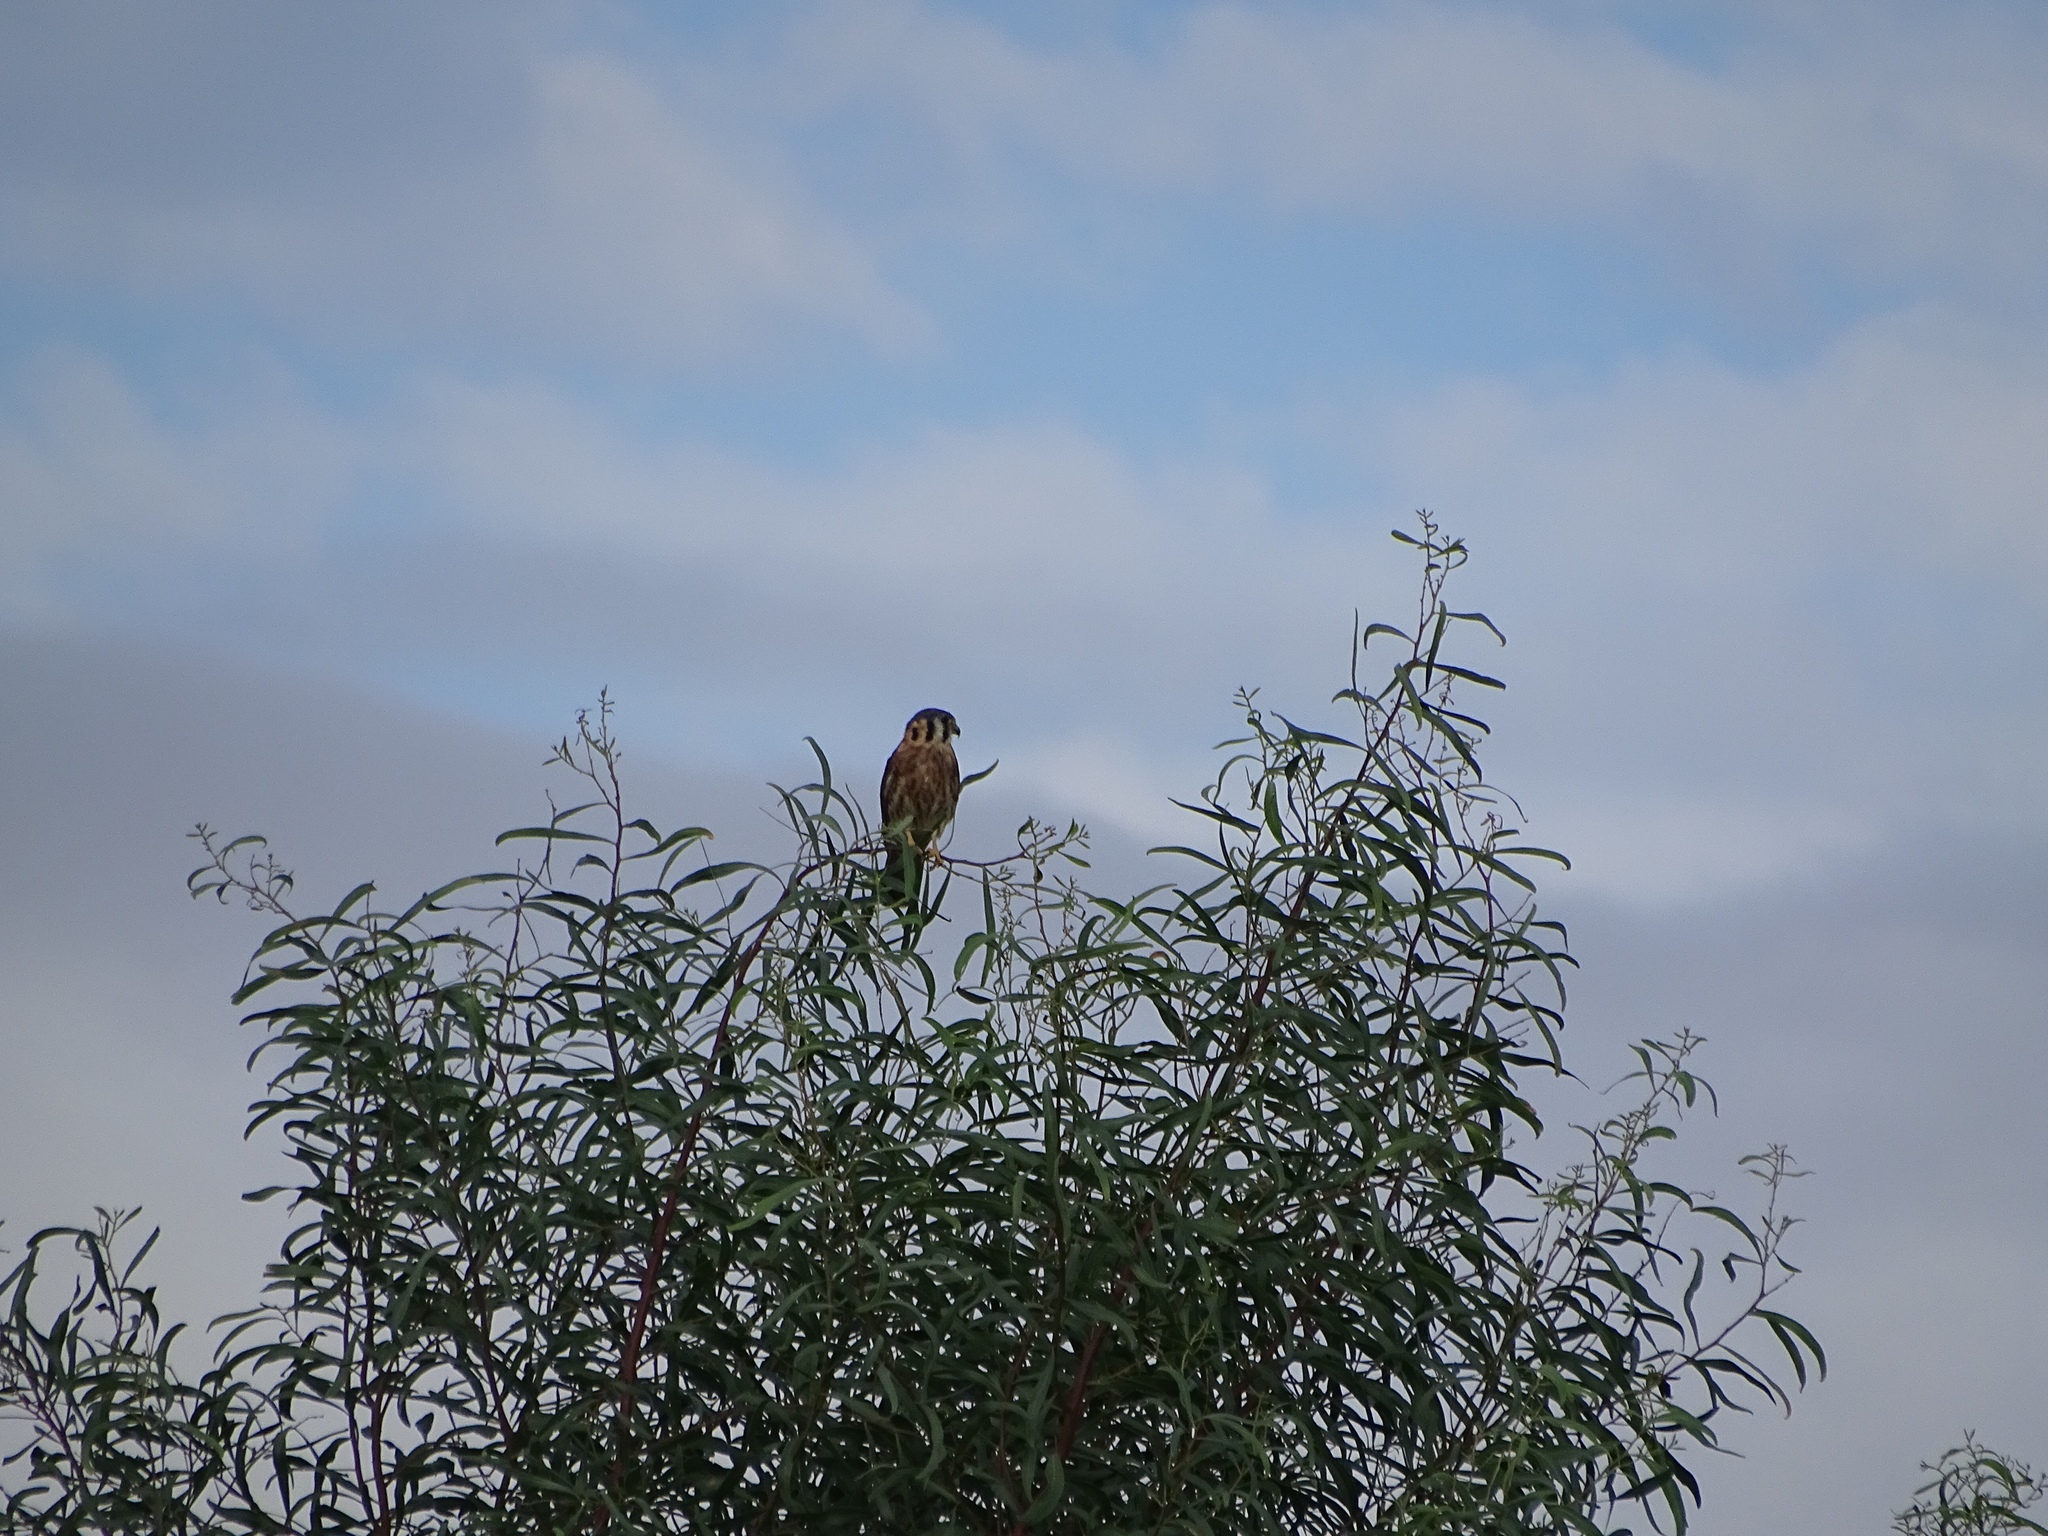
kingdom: Animalia
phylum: Chordata
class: Aves
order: Falconiformes
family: Falconidae
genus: Falco
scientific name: Falco sparverius
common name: American kestrel
